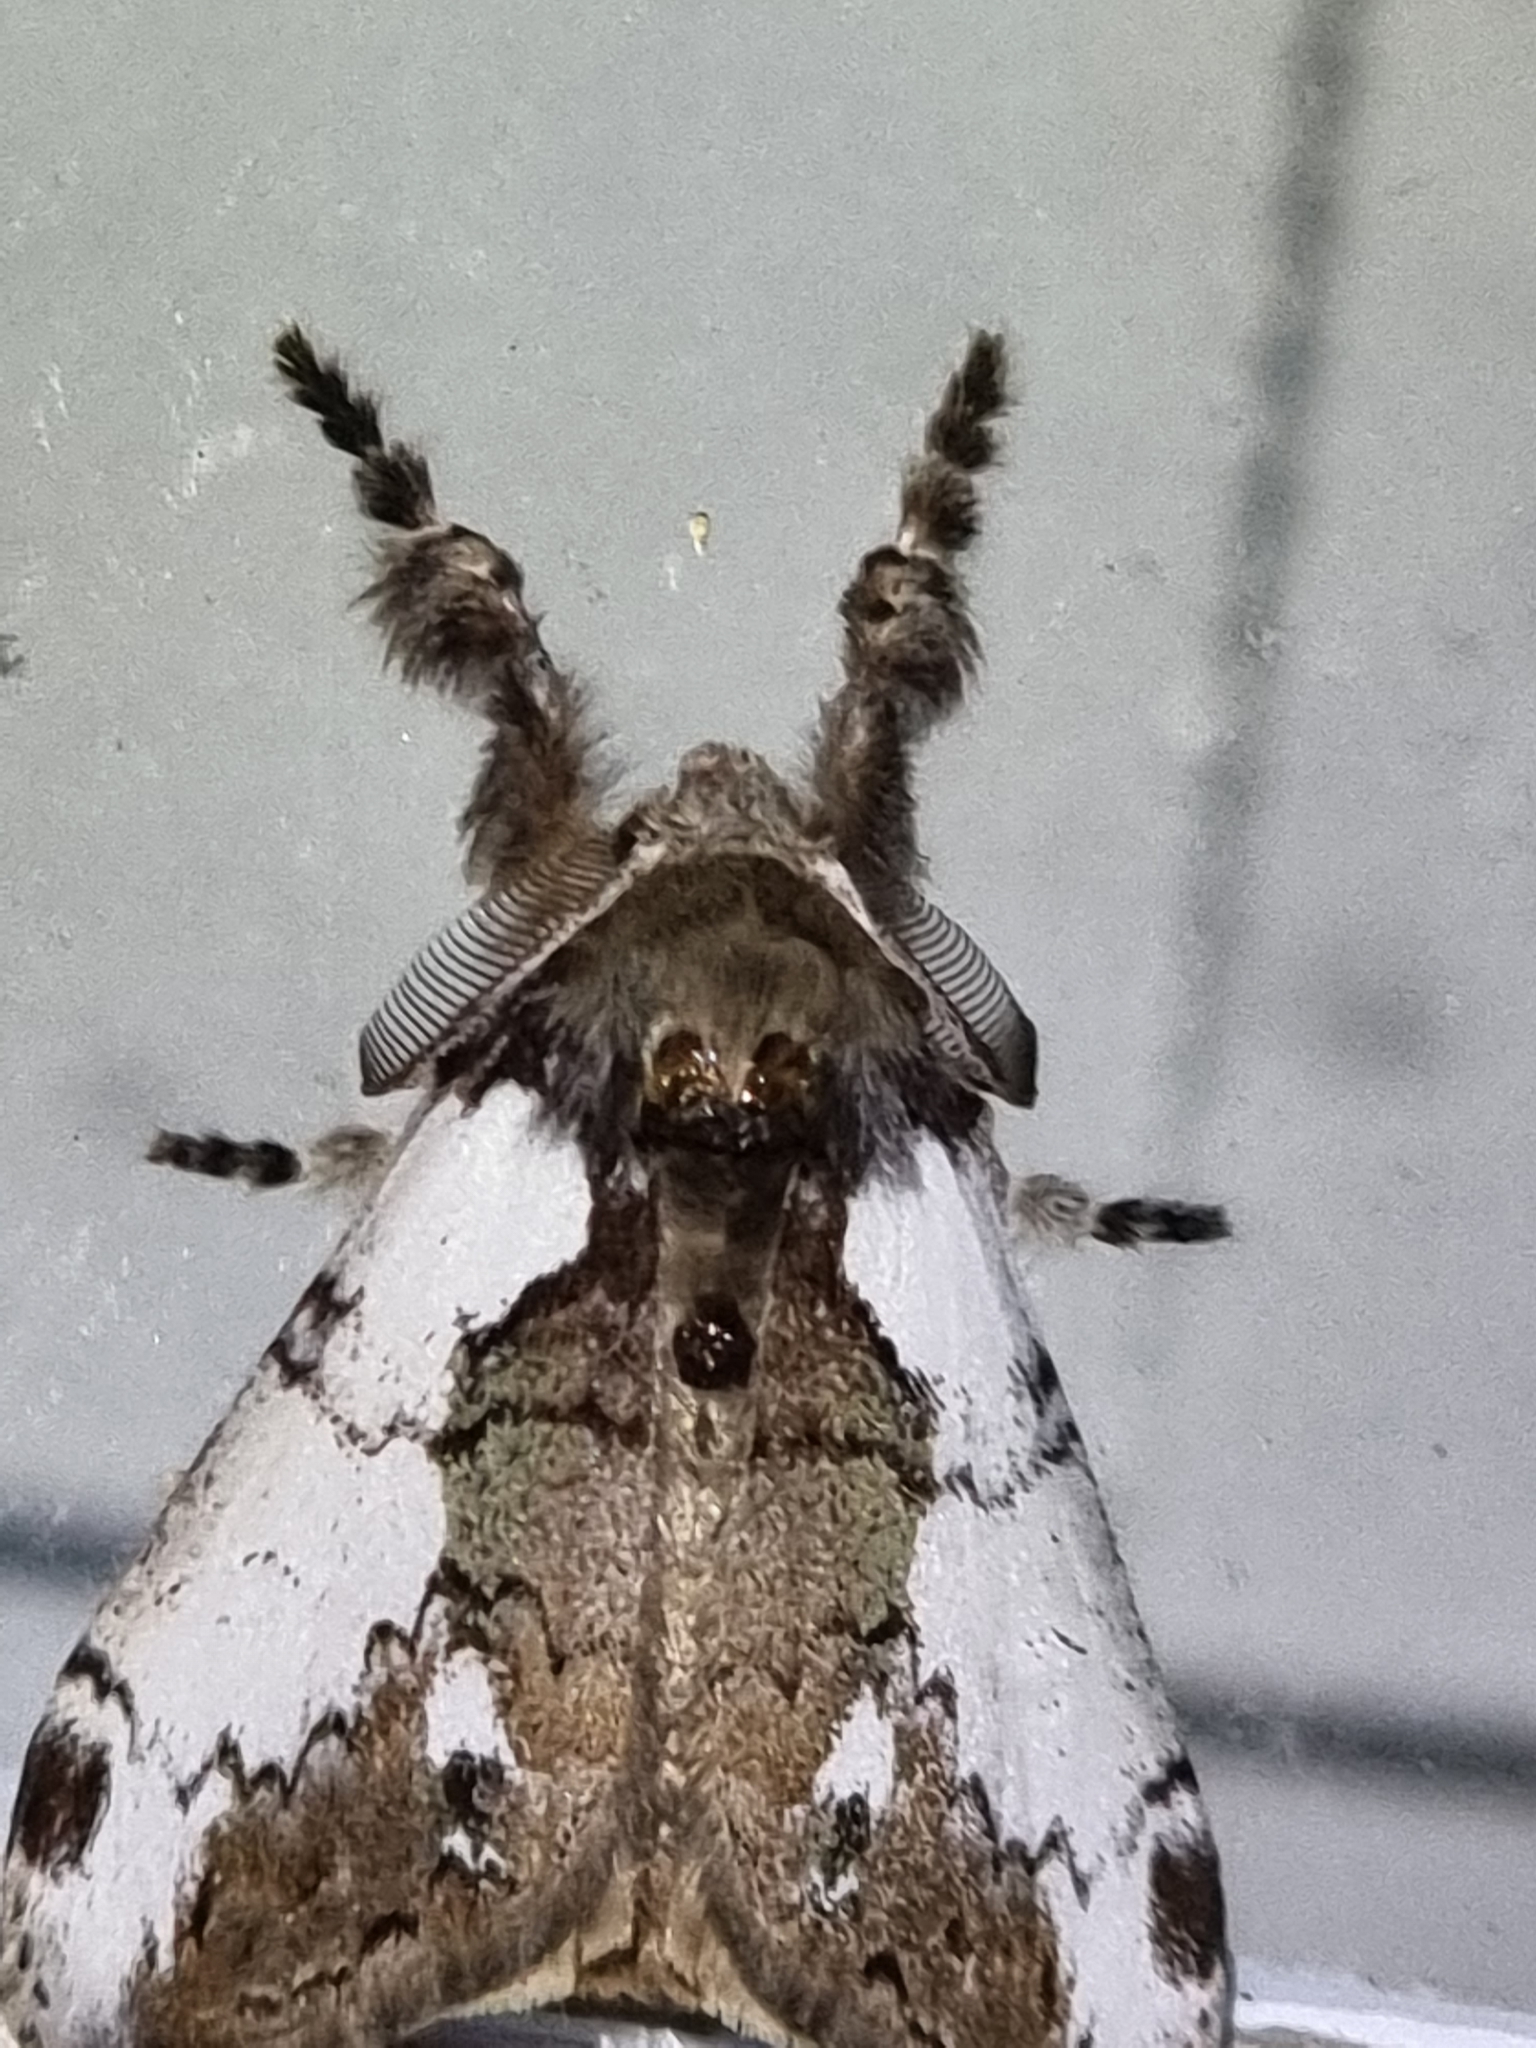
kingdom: Animalia
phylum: Arthropoda
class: Insecta
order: Lepidoptera
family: Erebidae
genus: Olene
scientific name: Olene mendosa
